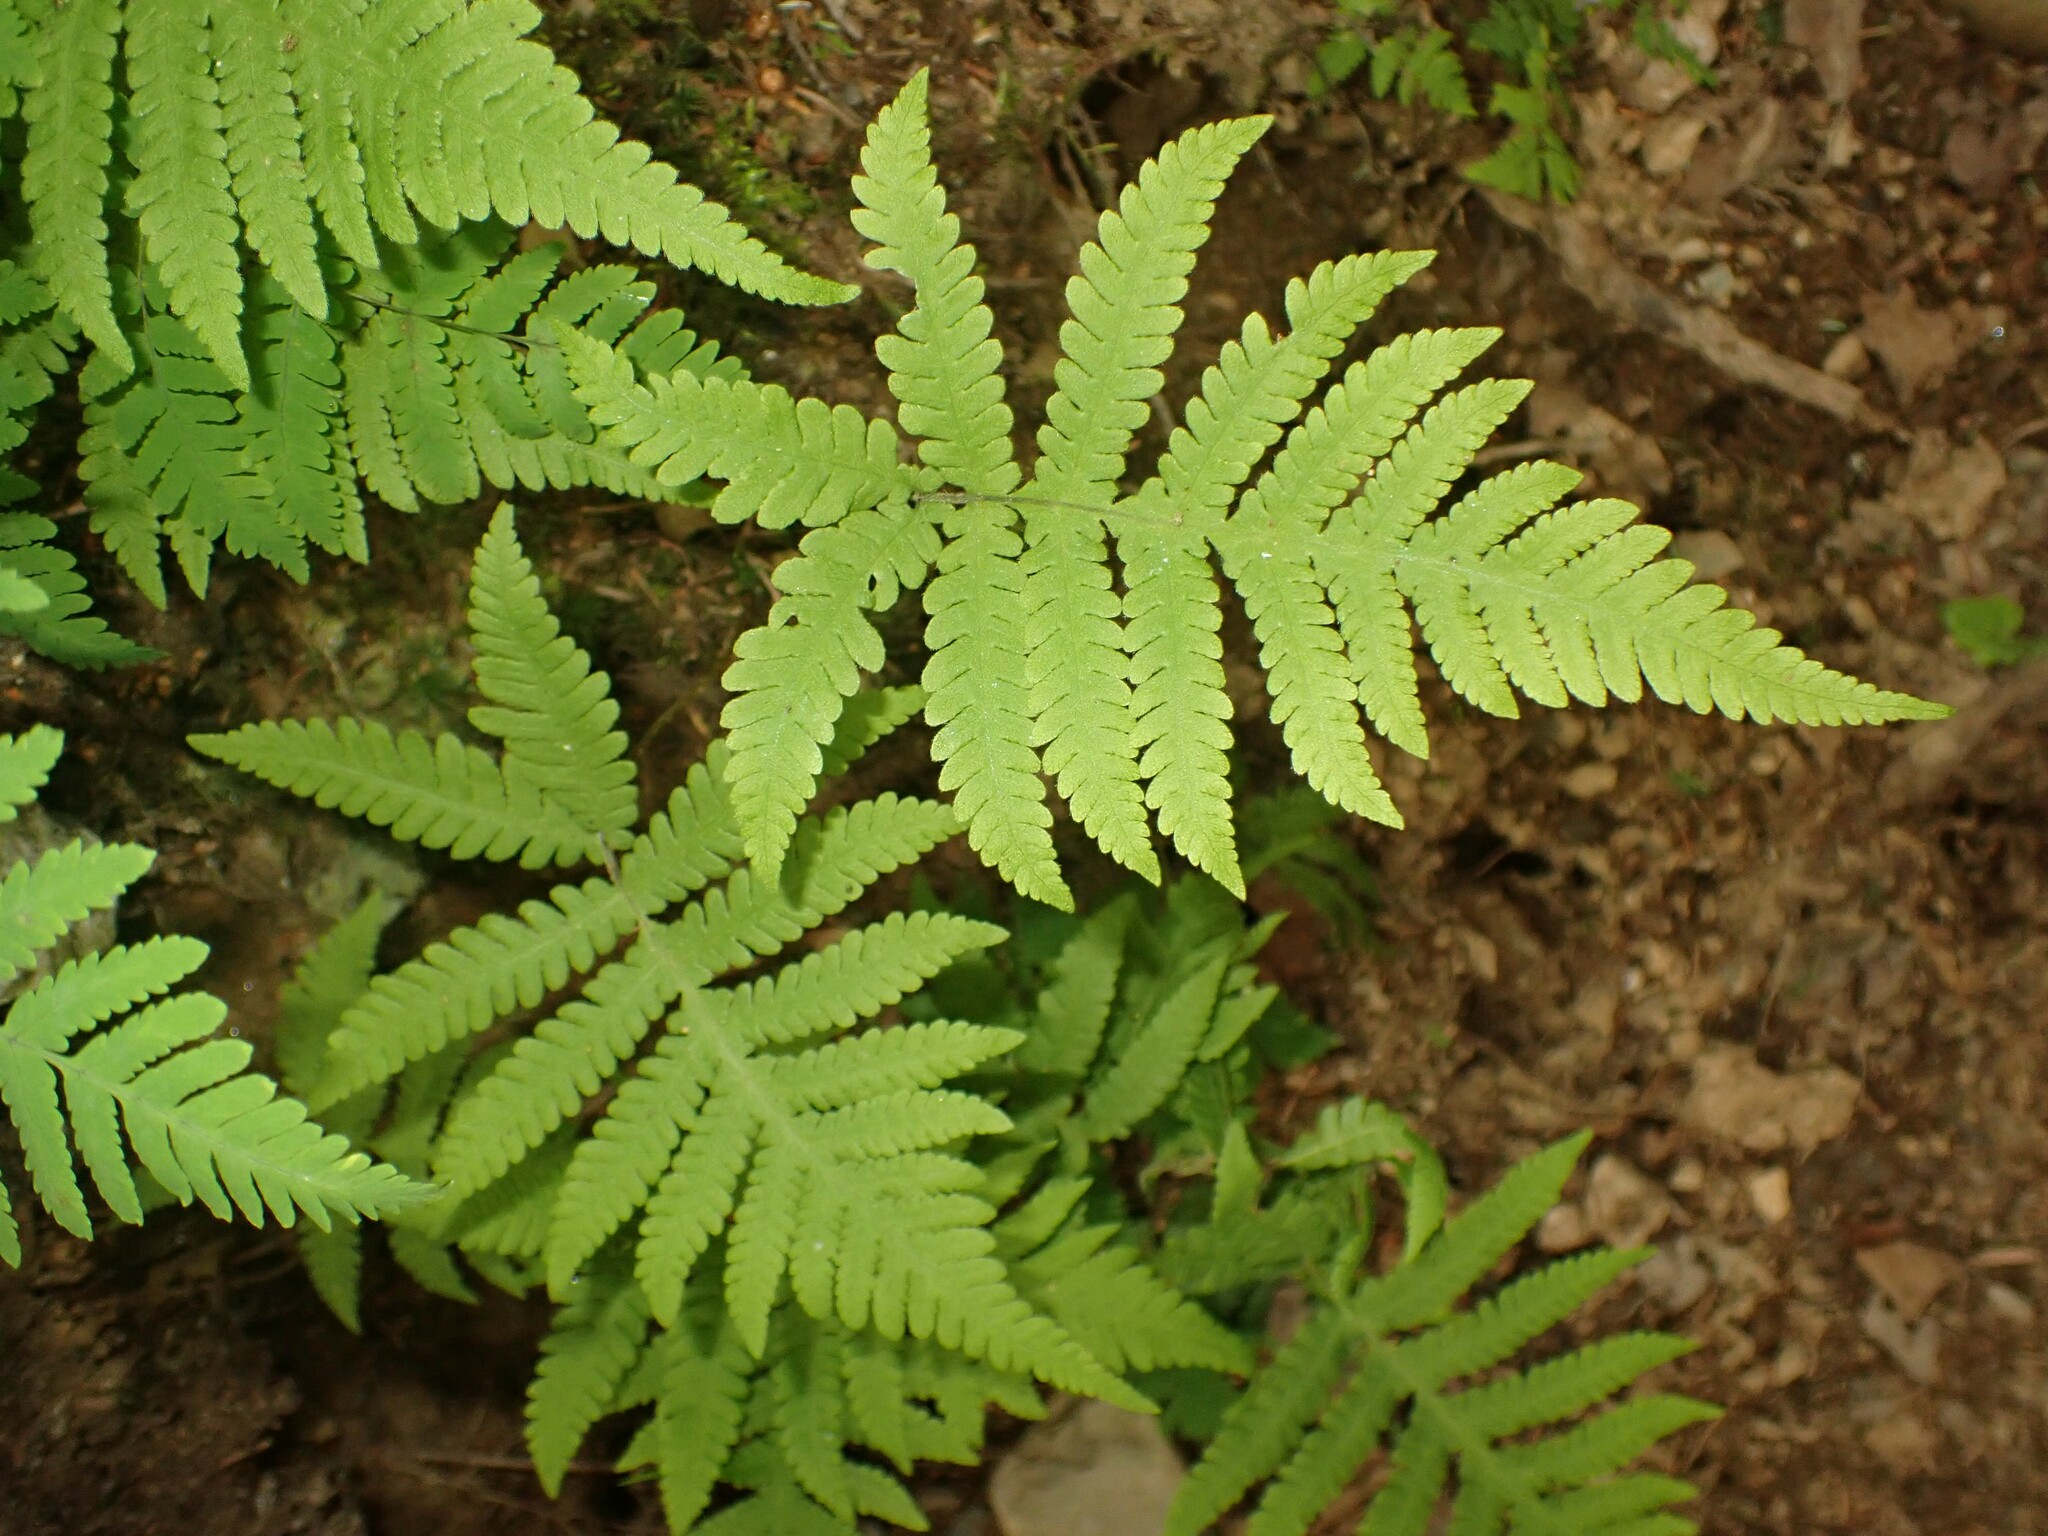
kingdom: Plantae
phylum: Tracheophyta
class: Polypodiopsida
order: Polypodiales
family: Thelypteridaceae
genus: Phegopteris
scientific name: Phegopteris connectilis
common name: Beech fern
